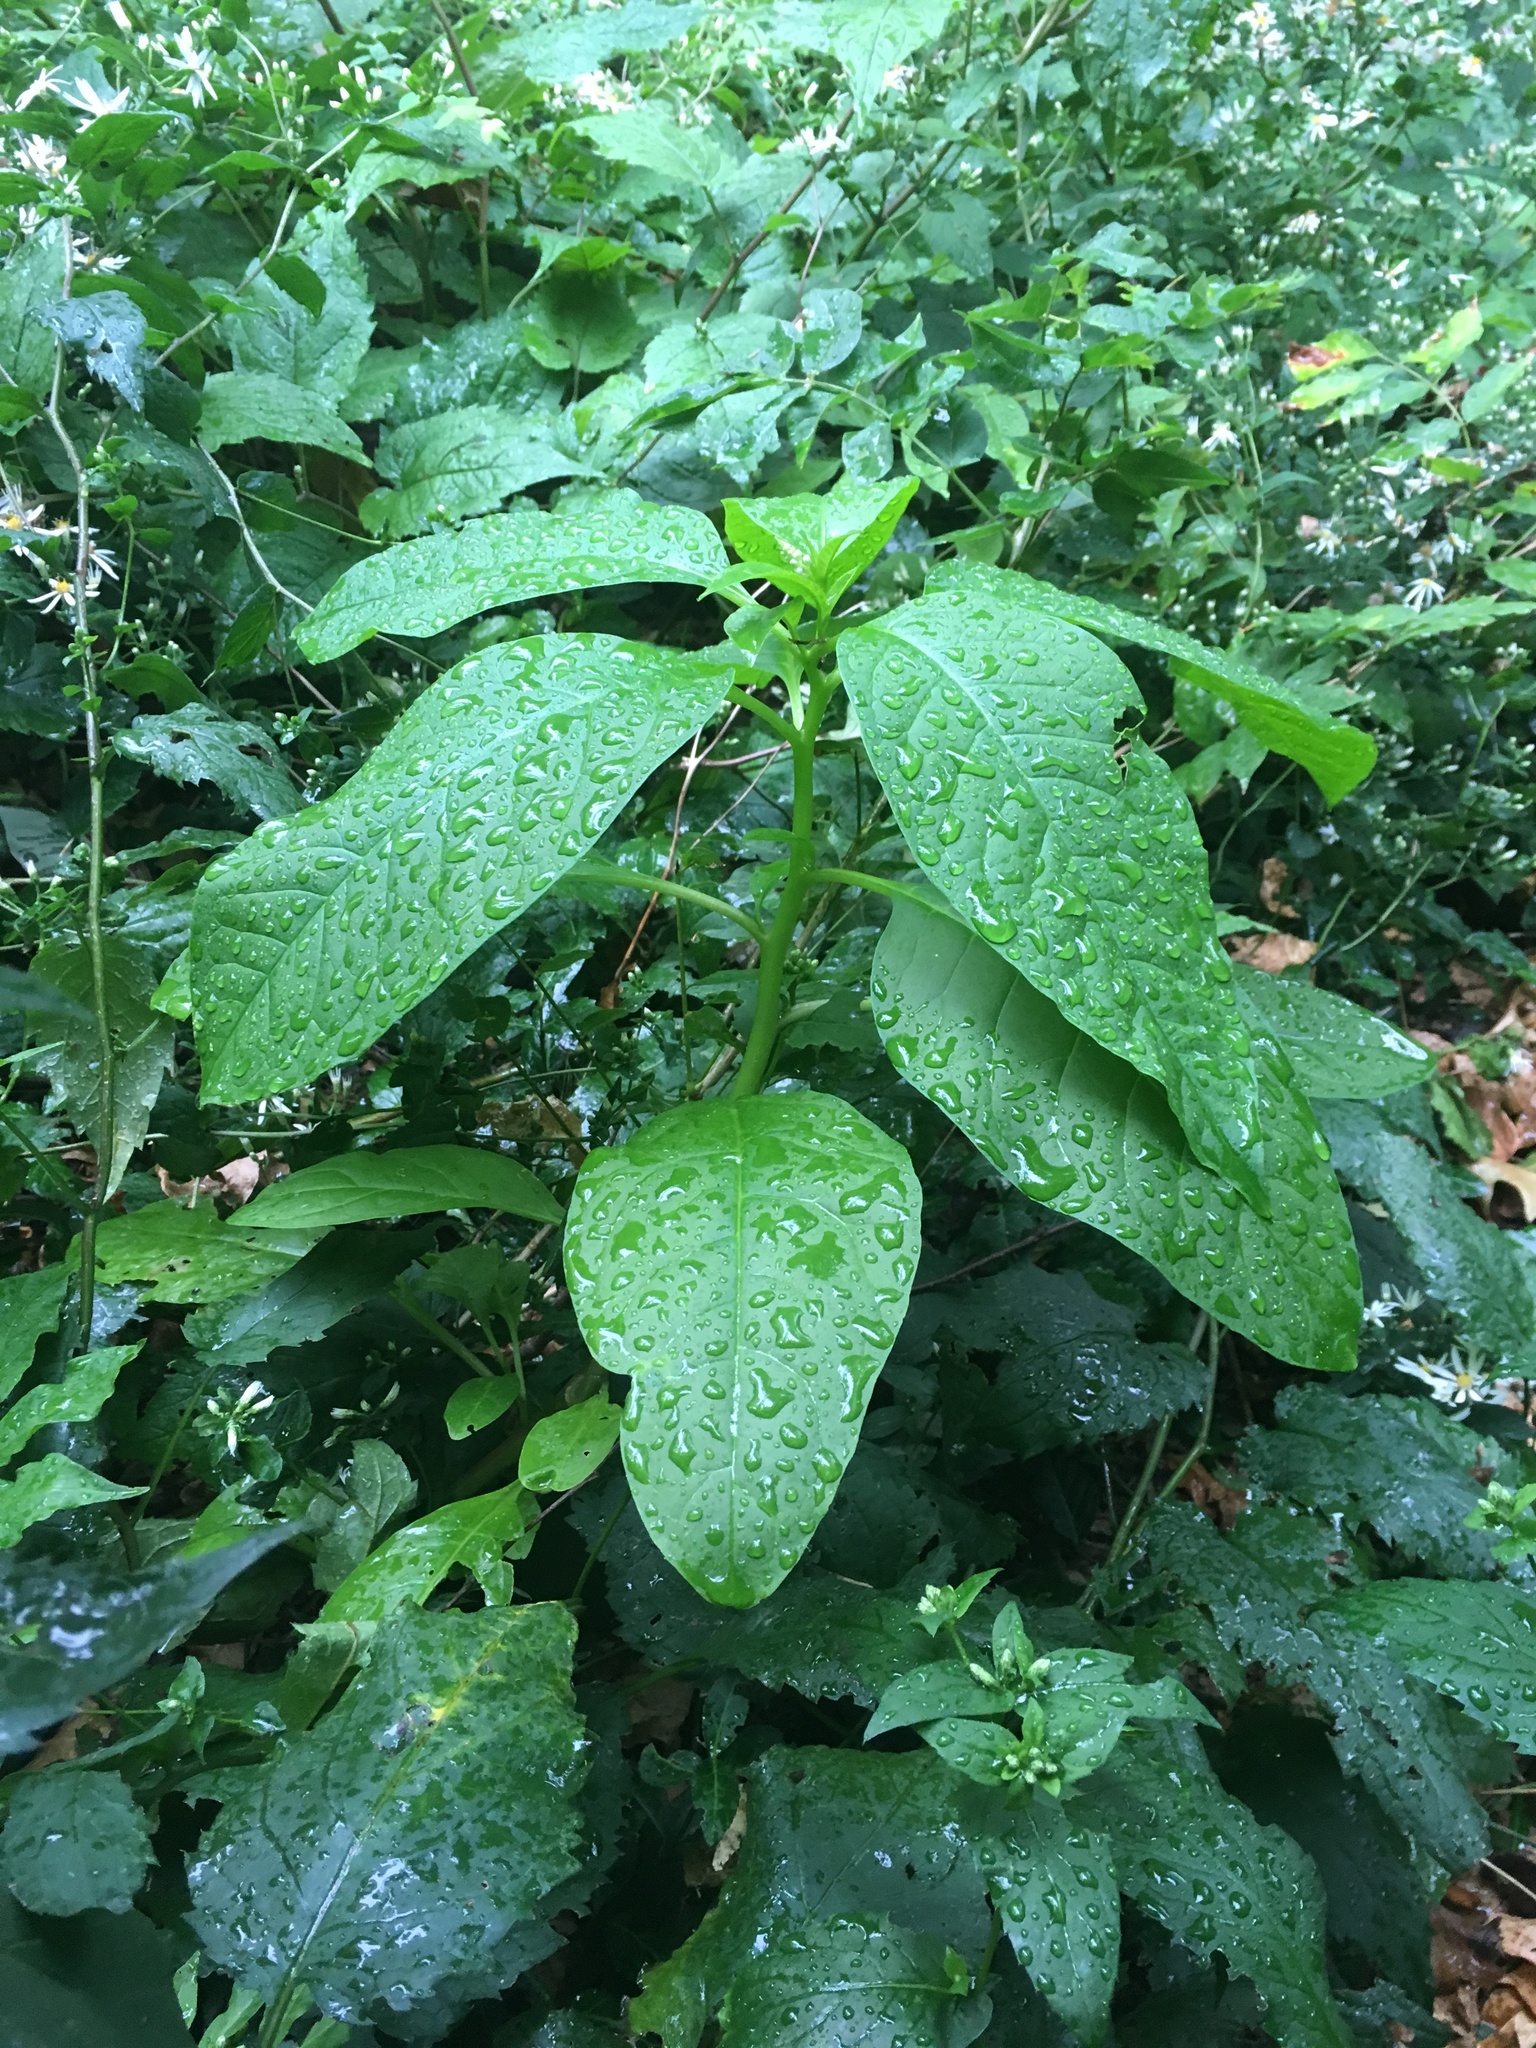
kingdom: Plantae
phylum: Tracheophyta
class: Magnoliopsida
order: Caryophyllales
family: Phytolaccaceae
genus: Phytolacca
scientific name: Phytolacca americana
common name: American pokeweed
